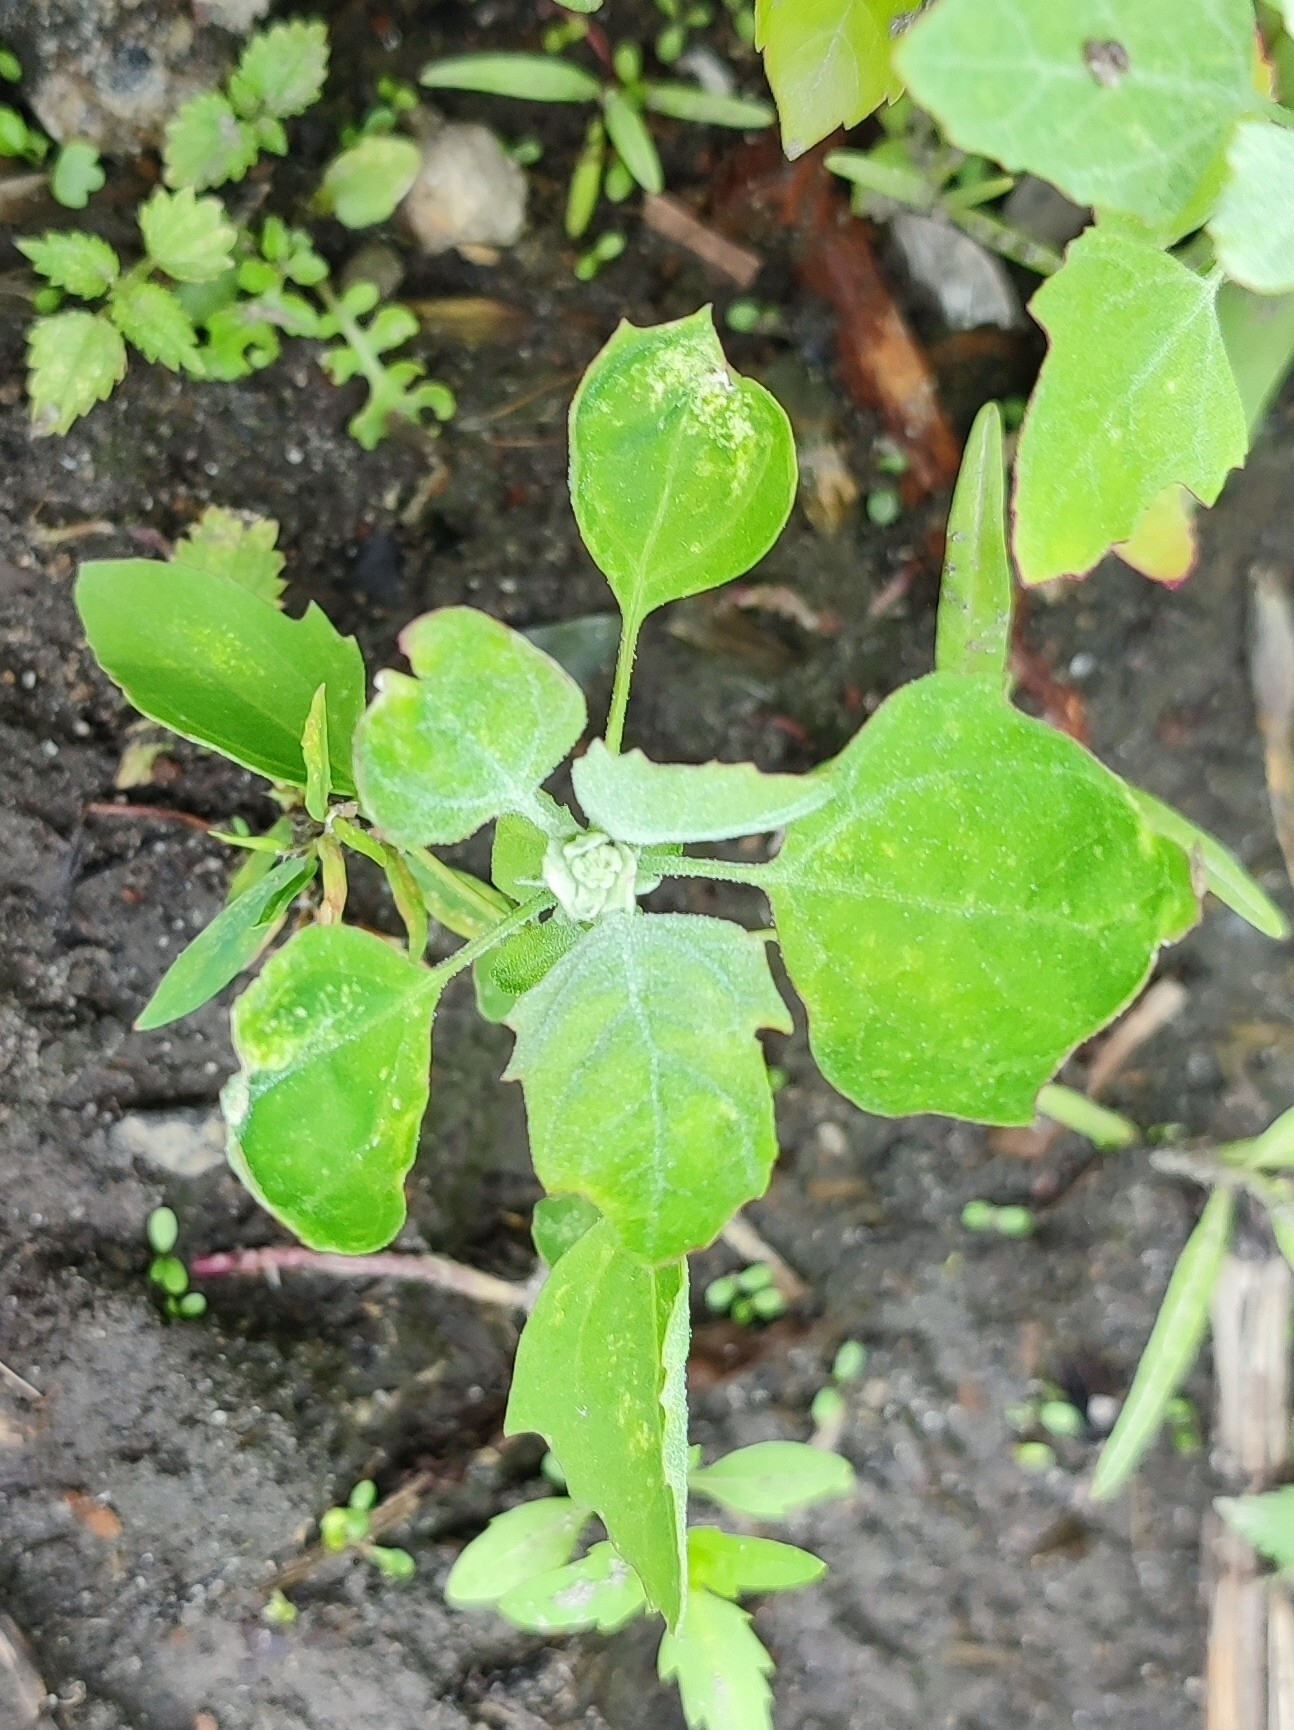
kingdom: Plantae
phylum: Tracheophyta
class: Magnoliopsida
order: Caryophyllales
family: Amaranthaceae
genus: Chenopodium
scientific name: Chenopodium album
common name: Fat-hen
